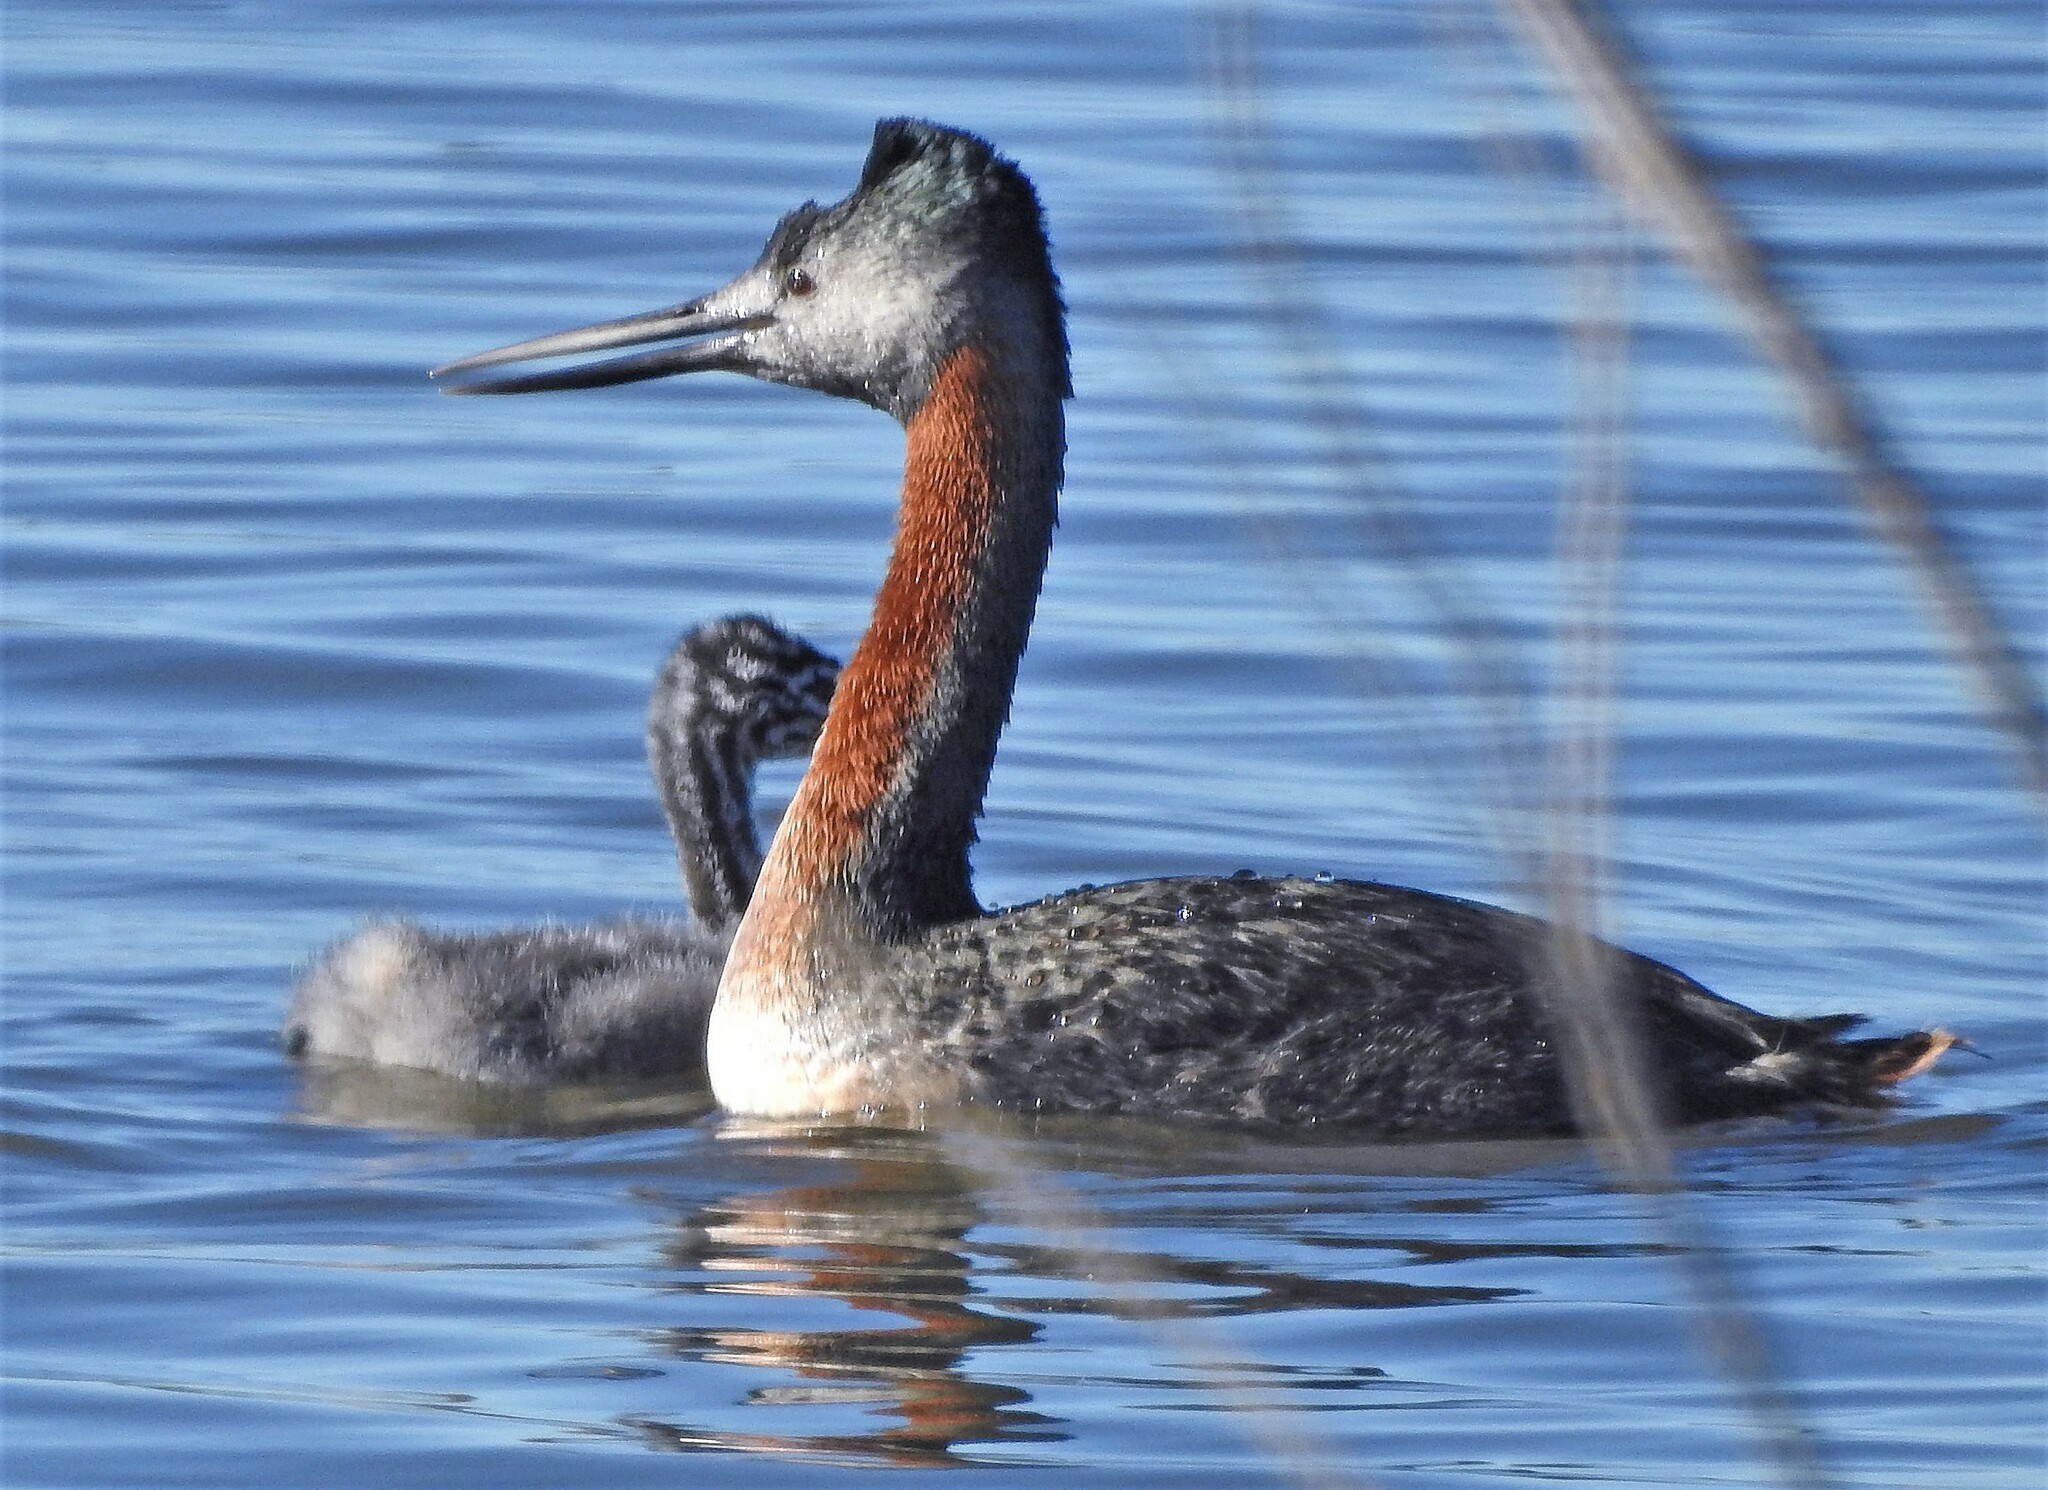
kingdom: Animalia
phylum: Chordata
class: Aves
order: Podicipediformes
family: Podicipedidae
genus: Podiceps
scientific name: Podiceps major
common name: Great grebe
